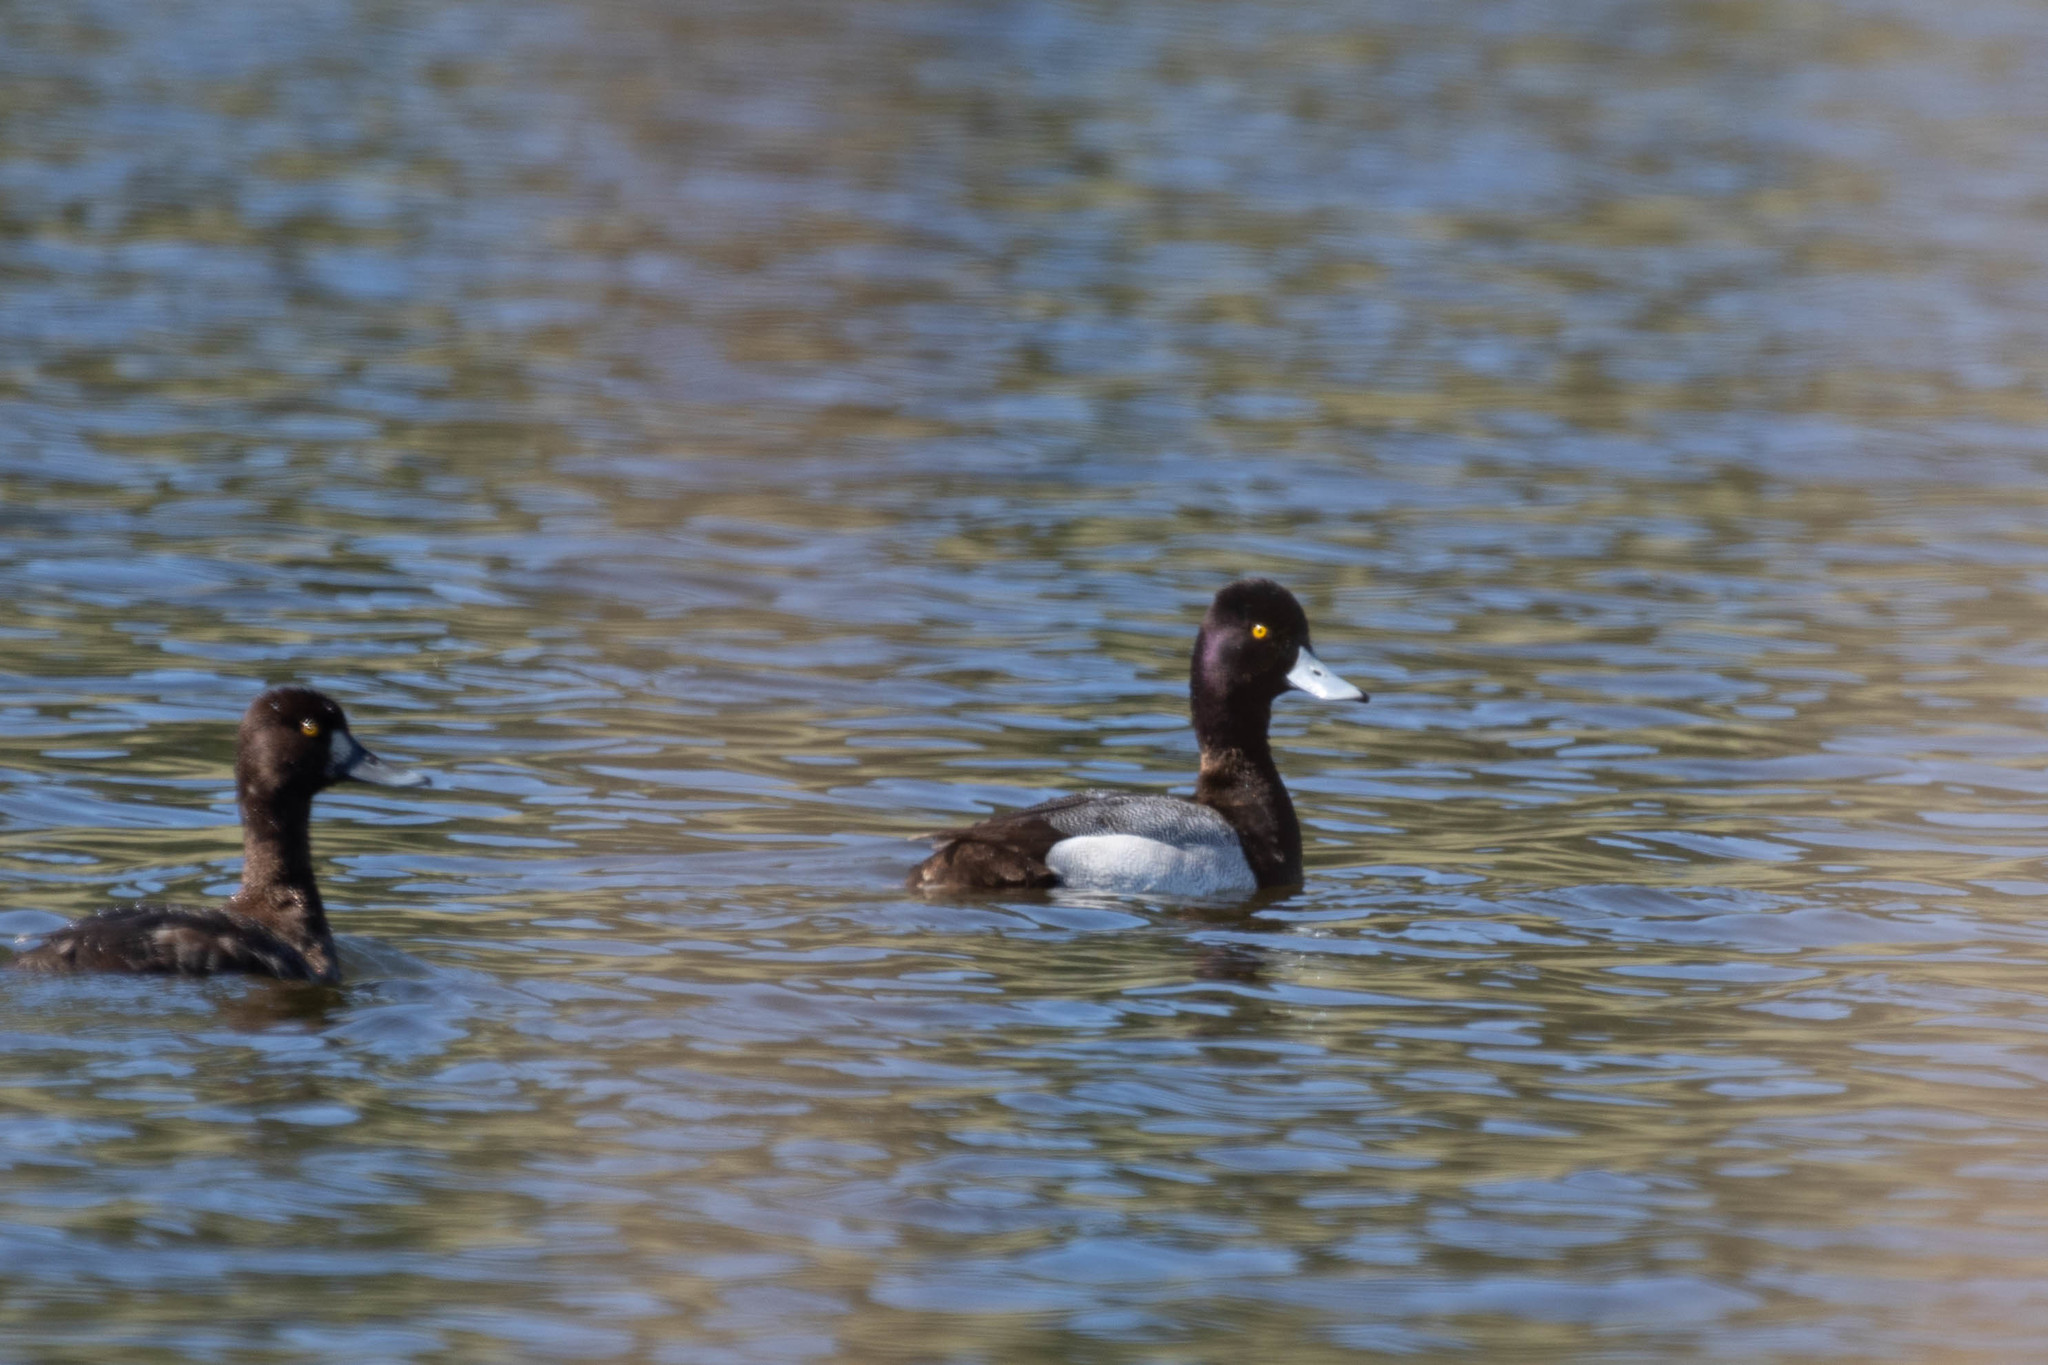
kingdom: Animalia
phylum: Chordata
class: Aves
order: Anseriformes
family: Anatidae
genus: Aythya
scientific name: Aythya affinis
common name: Lesser scaup
